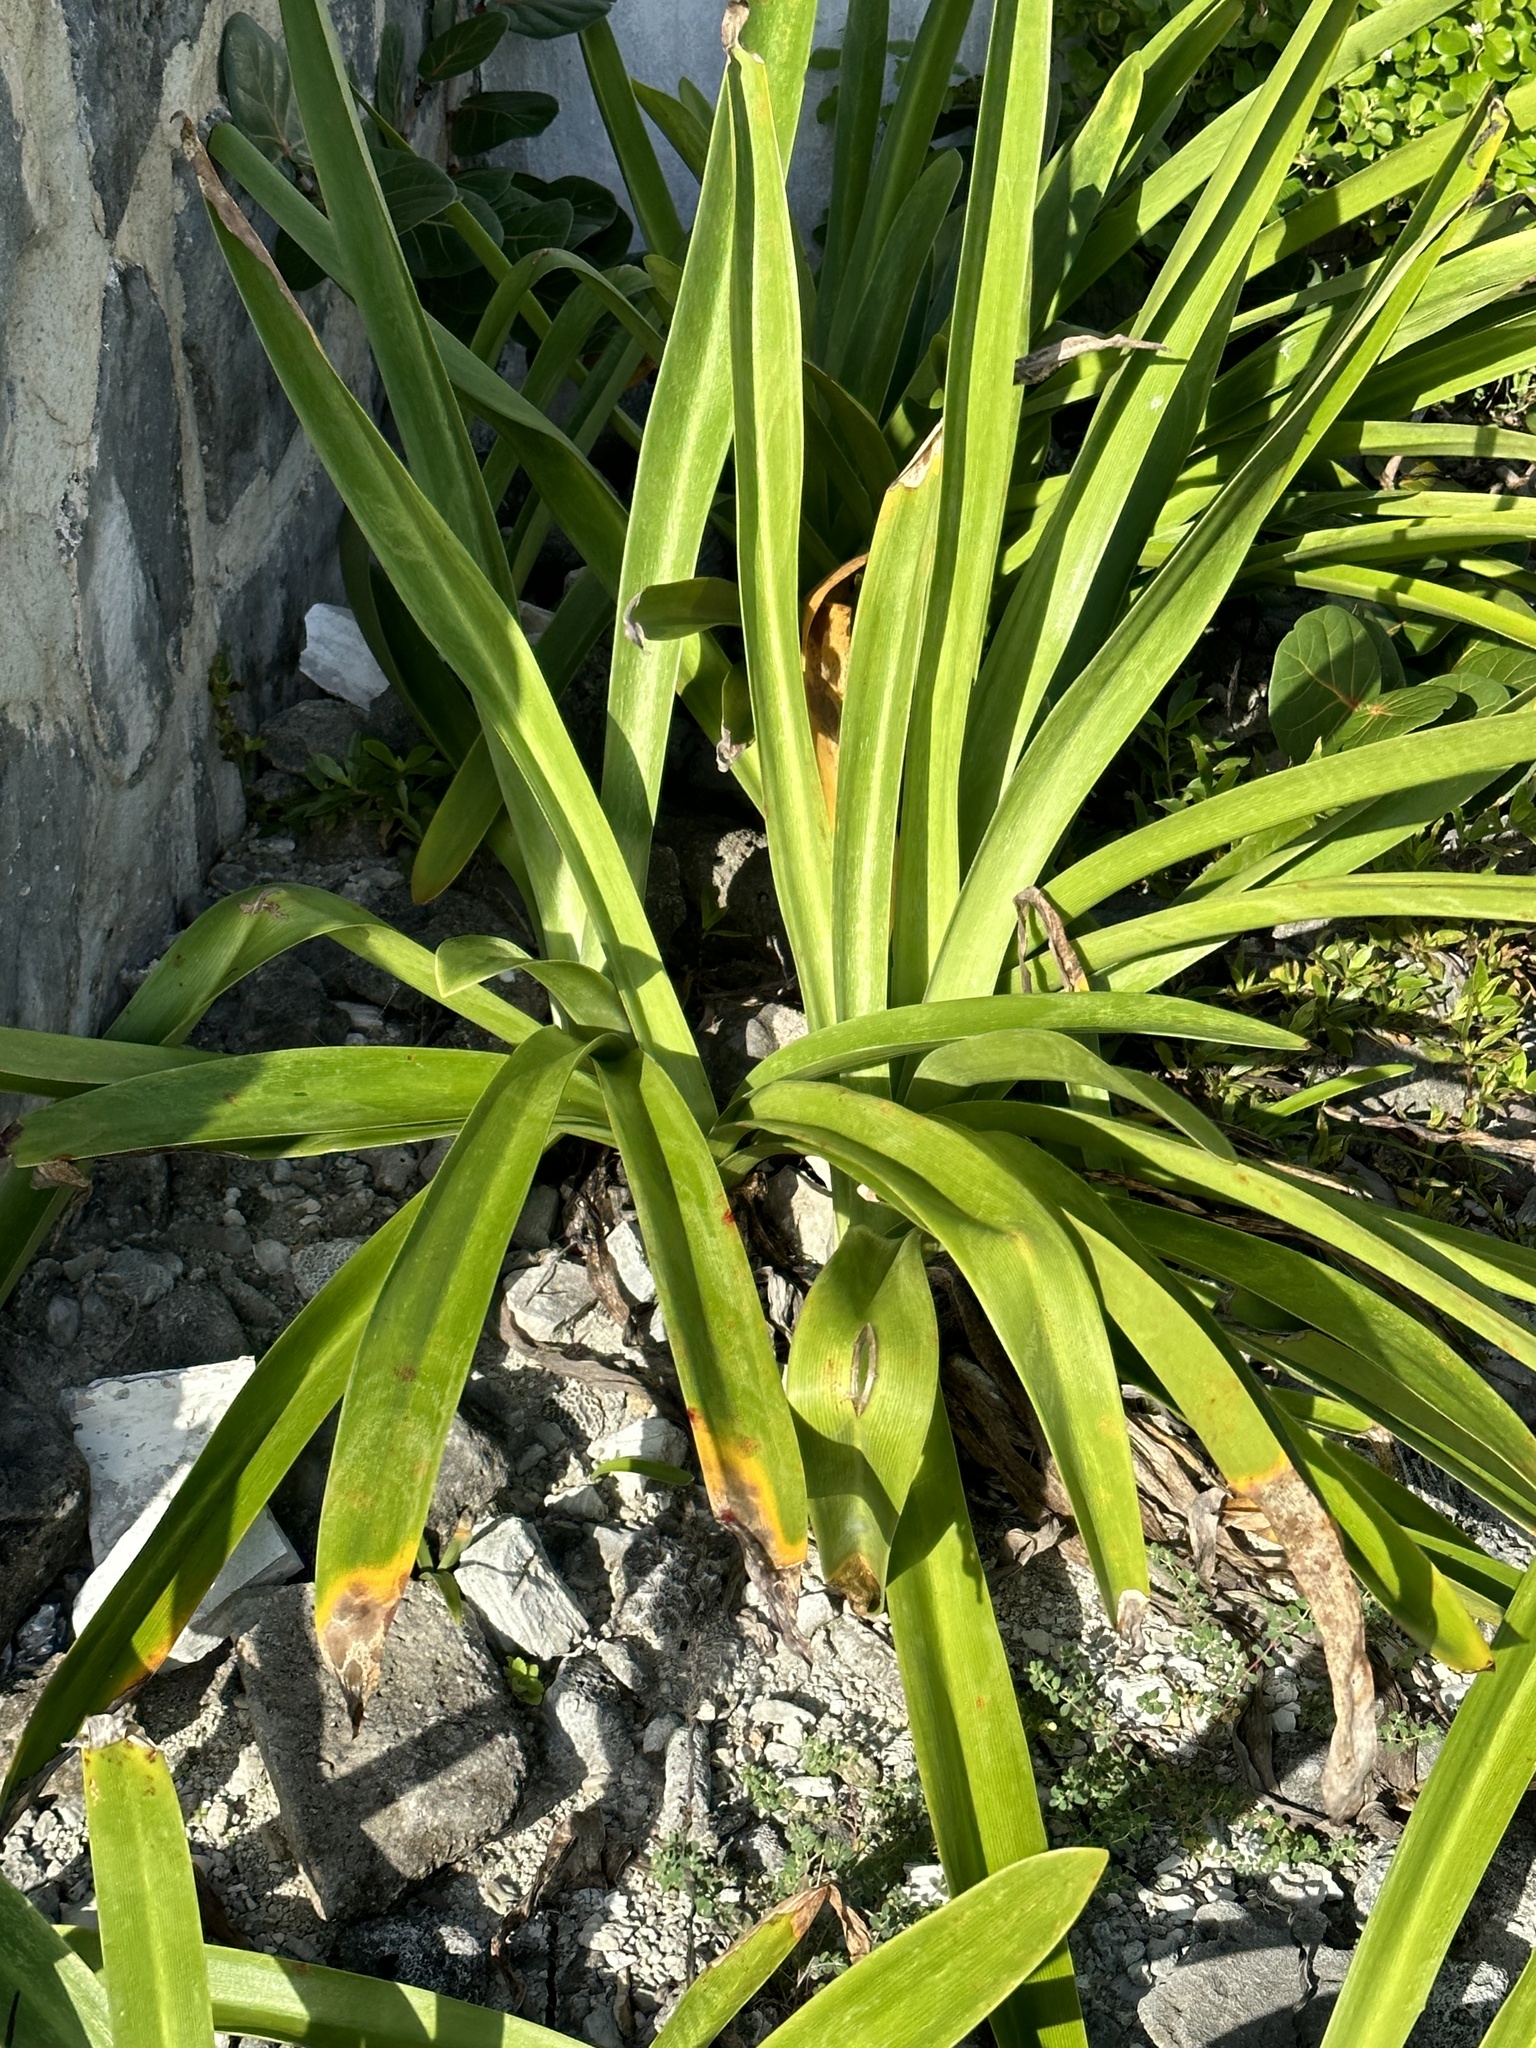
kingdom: Plantae
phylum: Tracheophyta
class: Liliopsida
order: Asparagales
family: Amaryllidaceae
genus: Hymenocallis
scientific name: Hymenocallis littoralis
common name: Beach spiderlily
